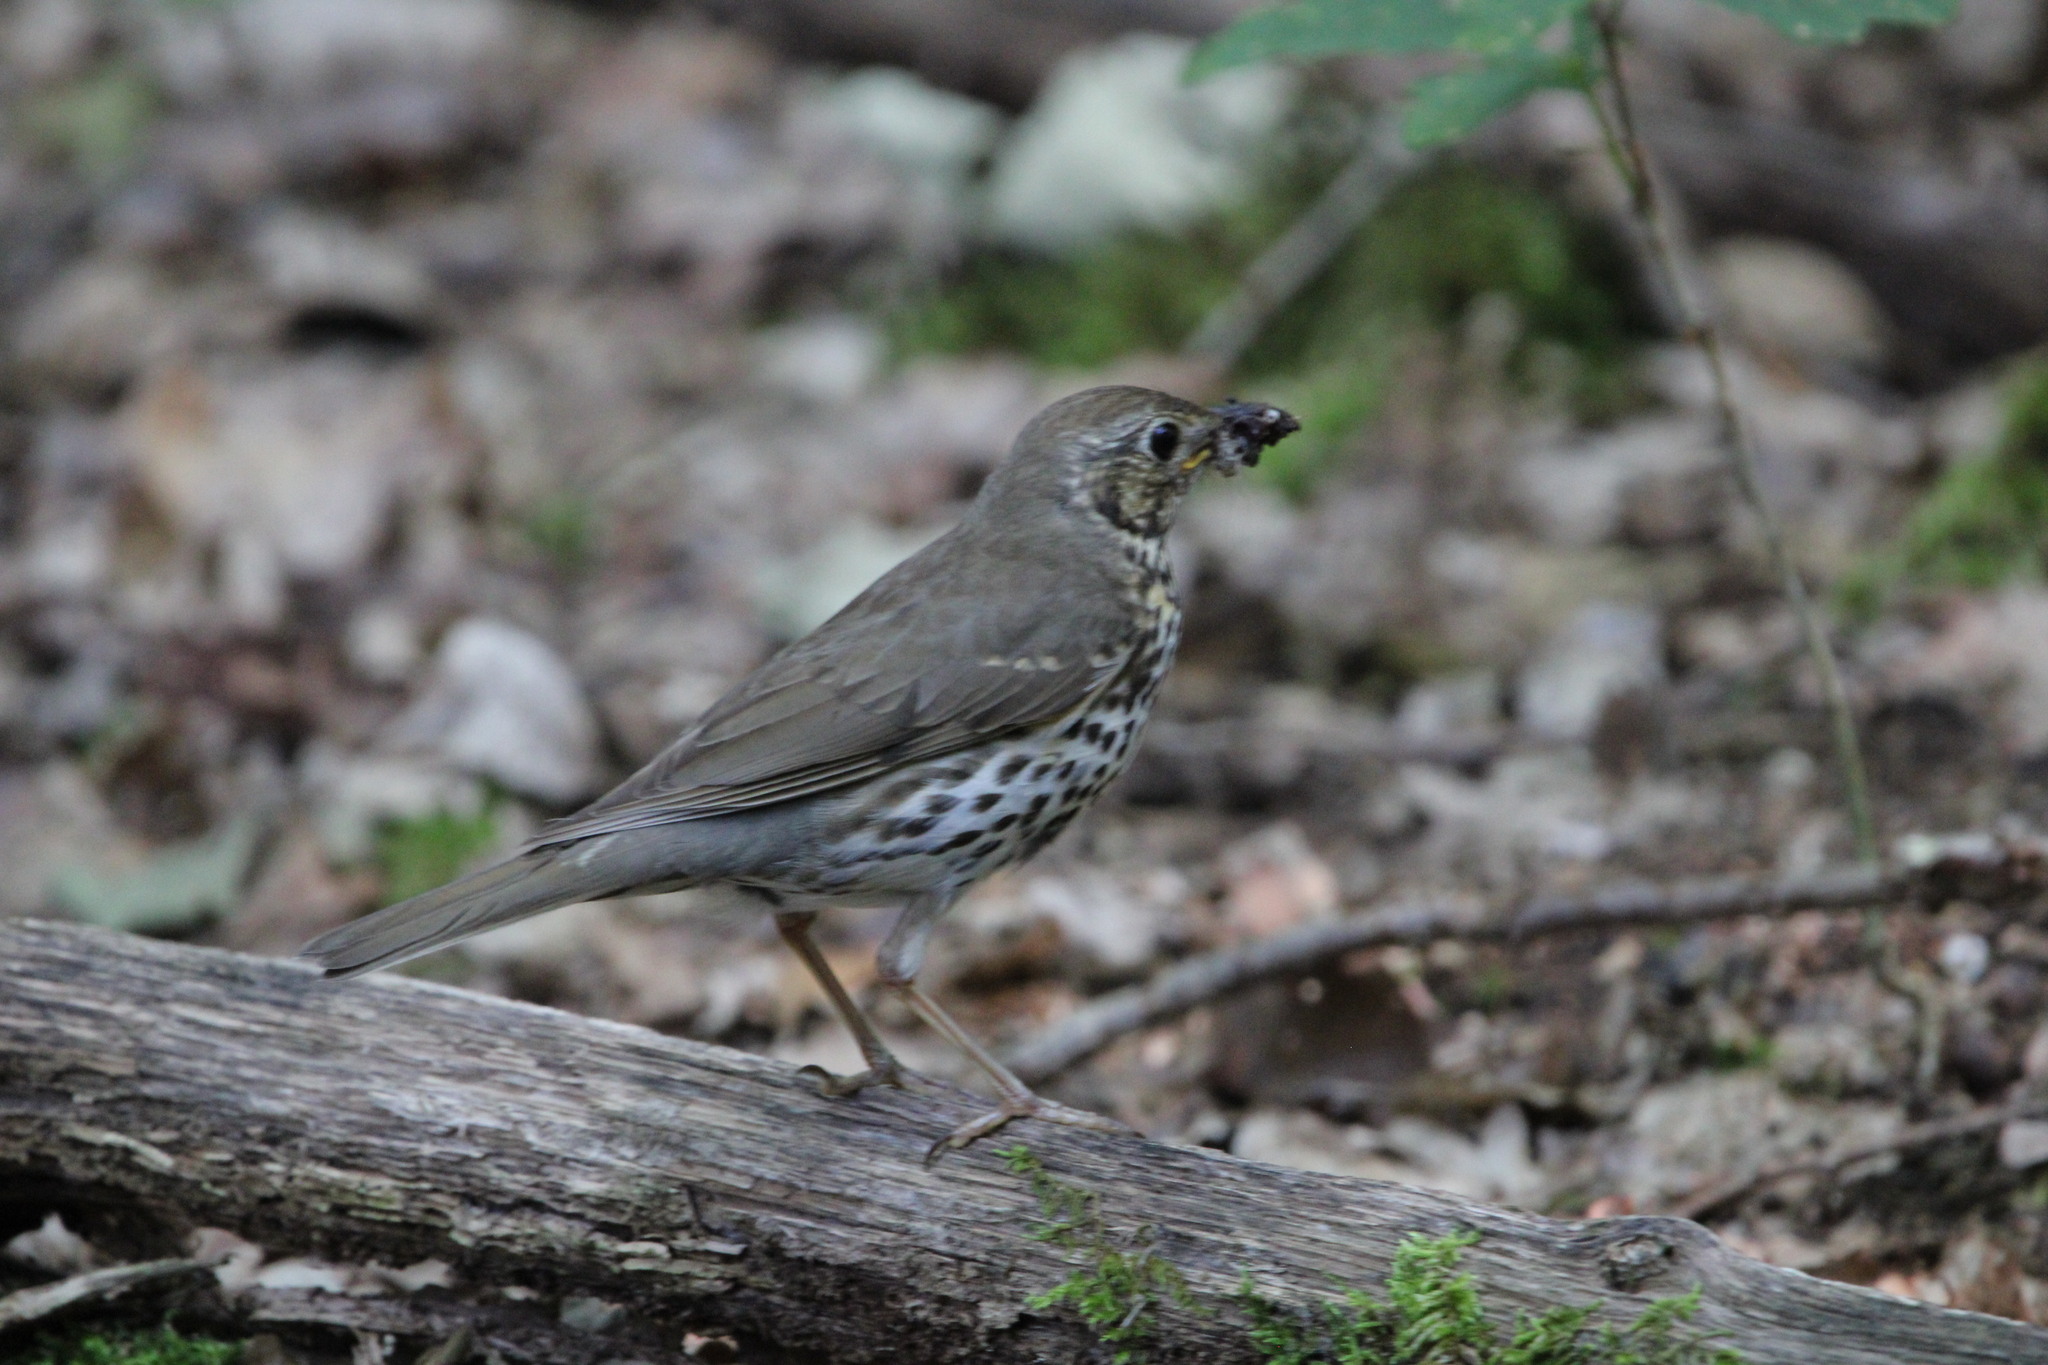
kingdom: Animalia
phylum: Chordata
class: Aves
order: Passeriformes
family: Turdidae
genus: Turdus
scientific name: Turdus philomelos
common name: Song thrush
